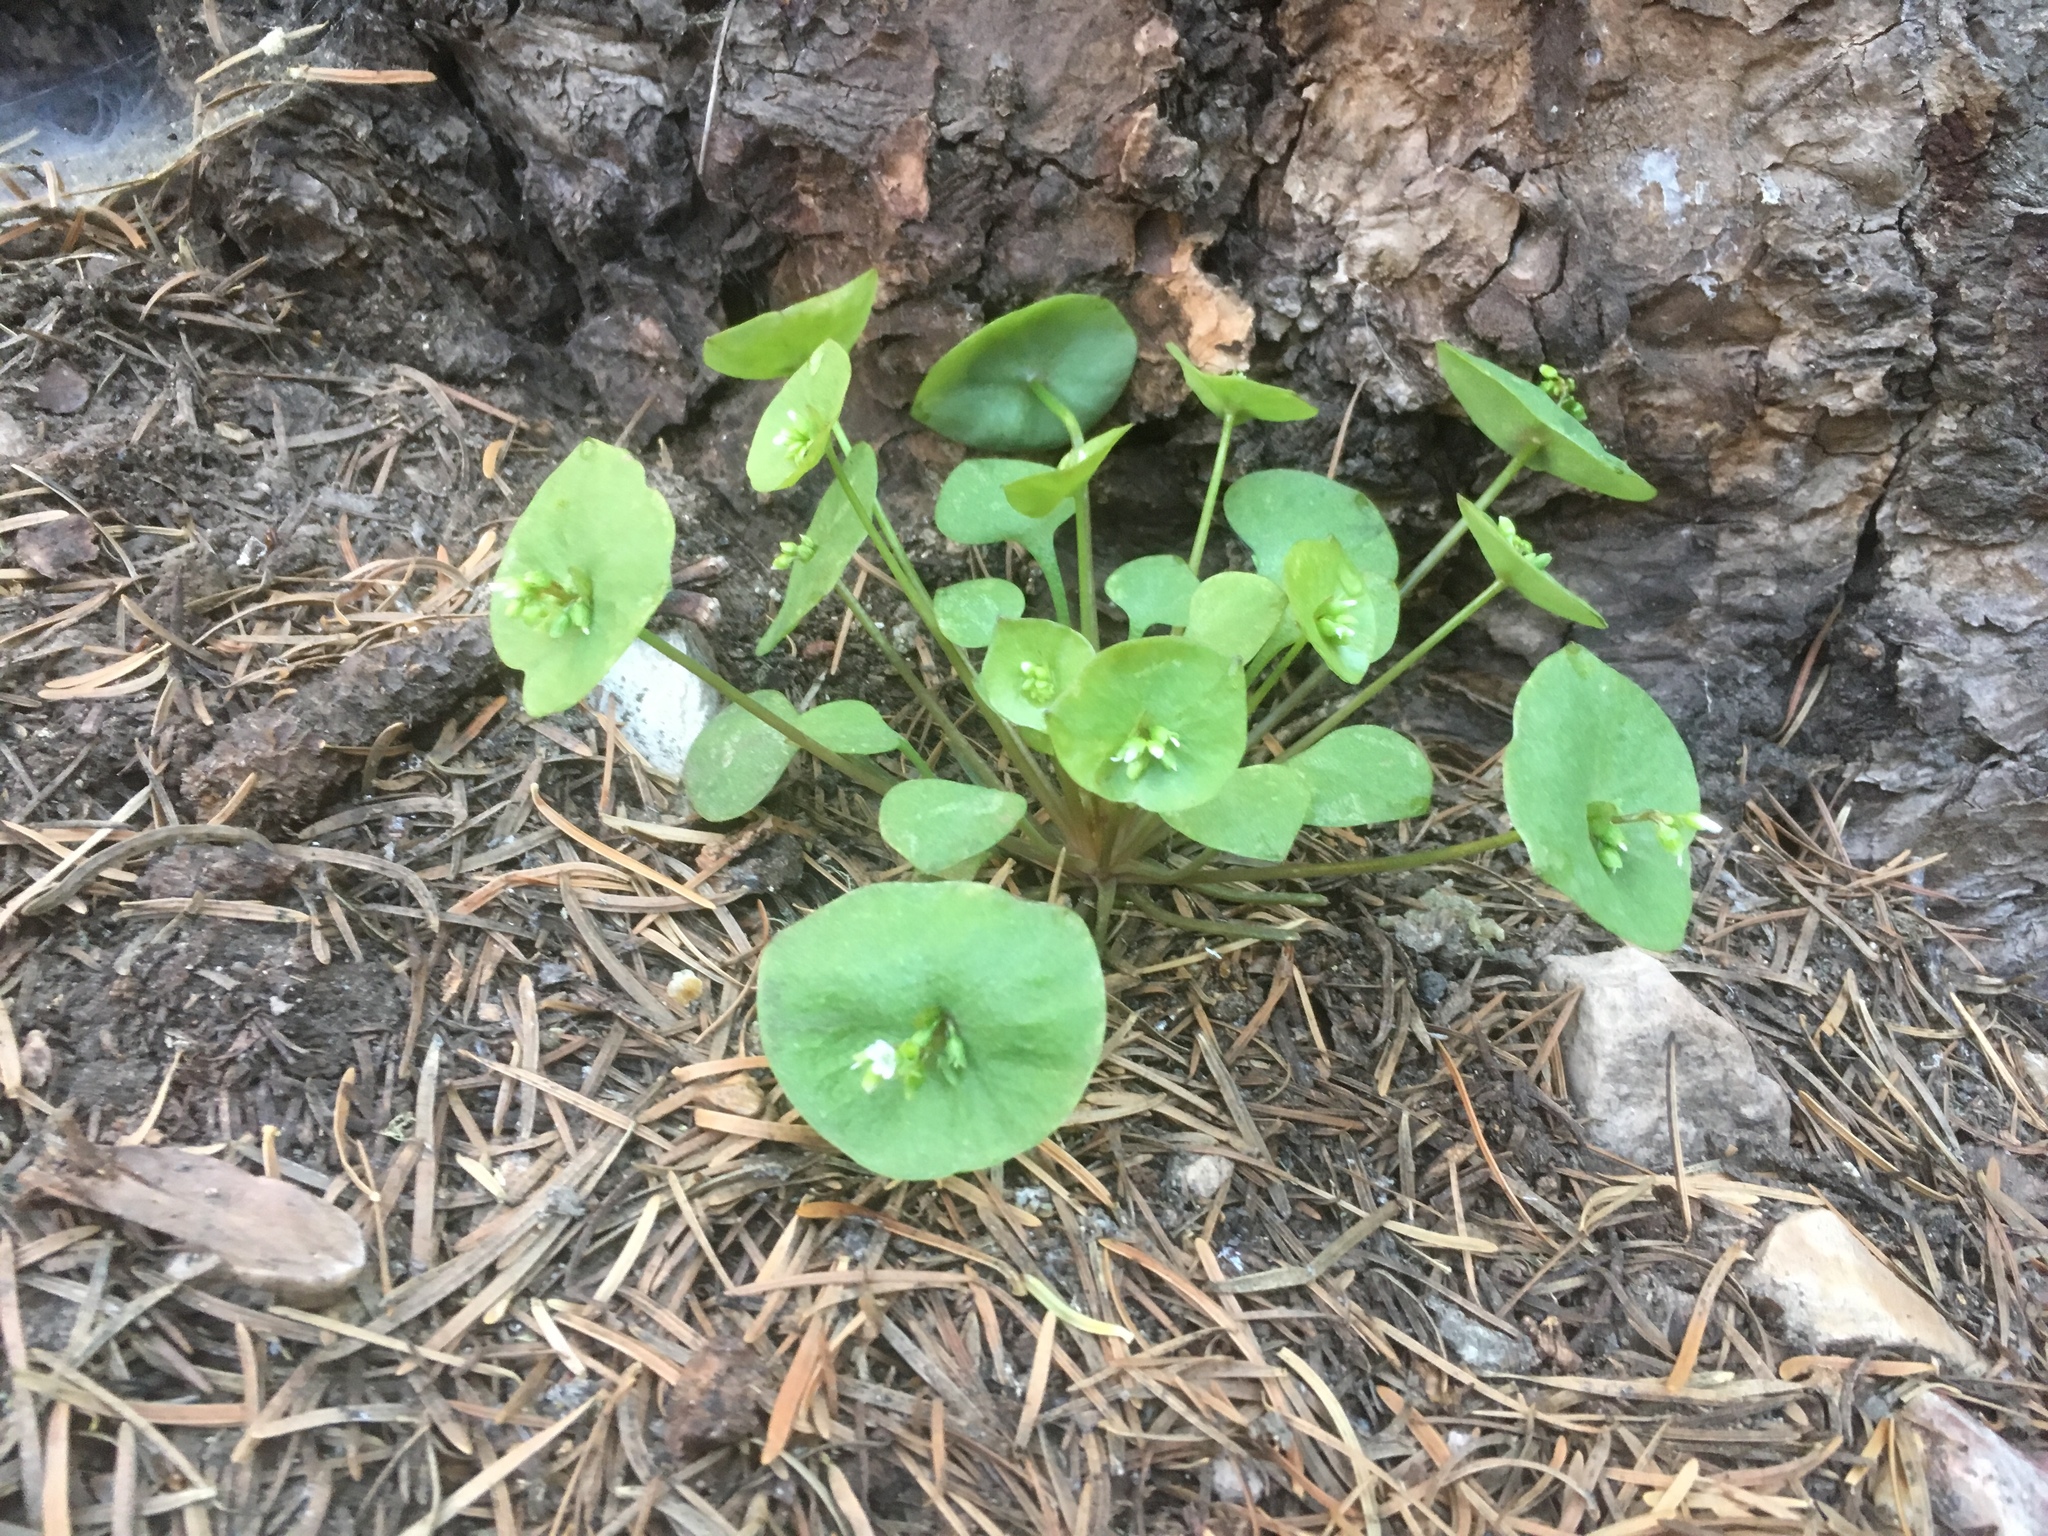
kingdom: Plantae
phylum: Tracheophyta
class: Magnoliopsida
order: Caryophyllales
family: Montiaceae
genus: Claytonia
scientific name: Claytonia perfoliata
